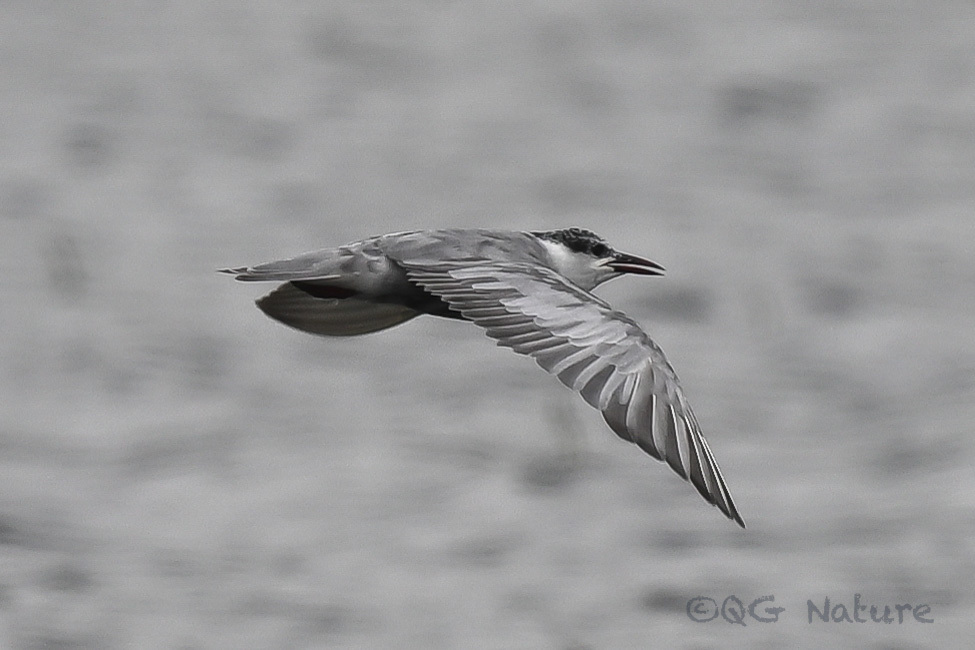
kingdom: Animalia
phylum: Chordata
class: Aves
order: Charadriiformes
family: Laridae
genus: Chlidonias
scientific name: Chlidonias hybrida
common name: Whiskered tern
